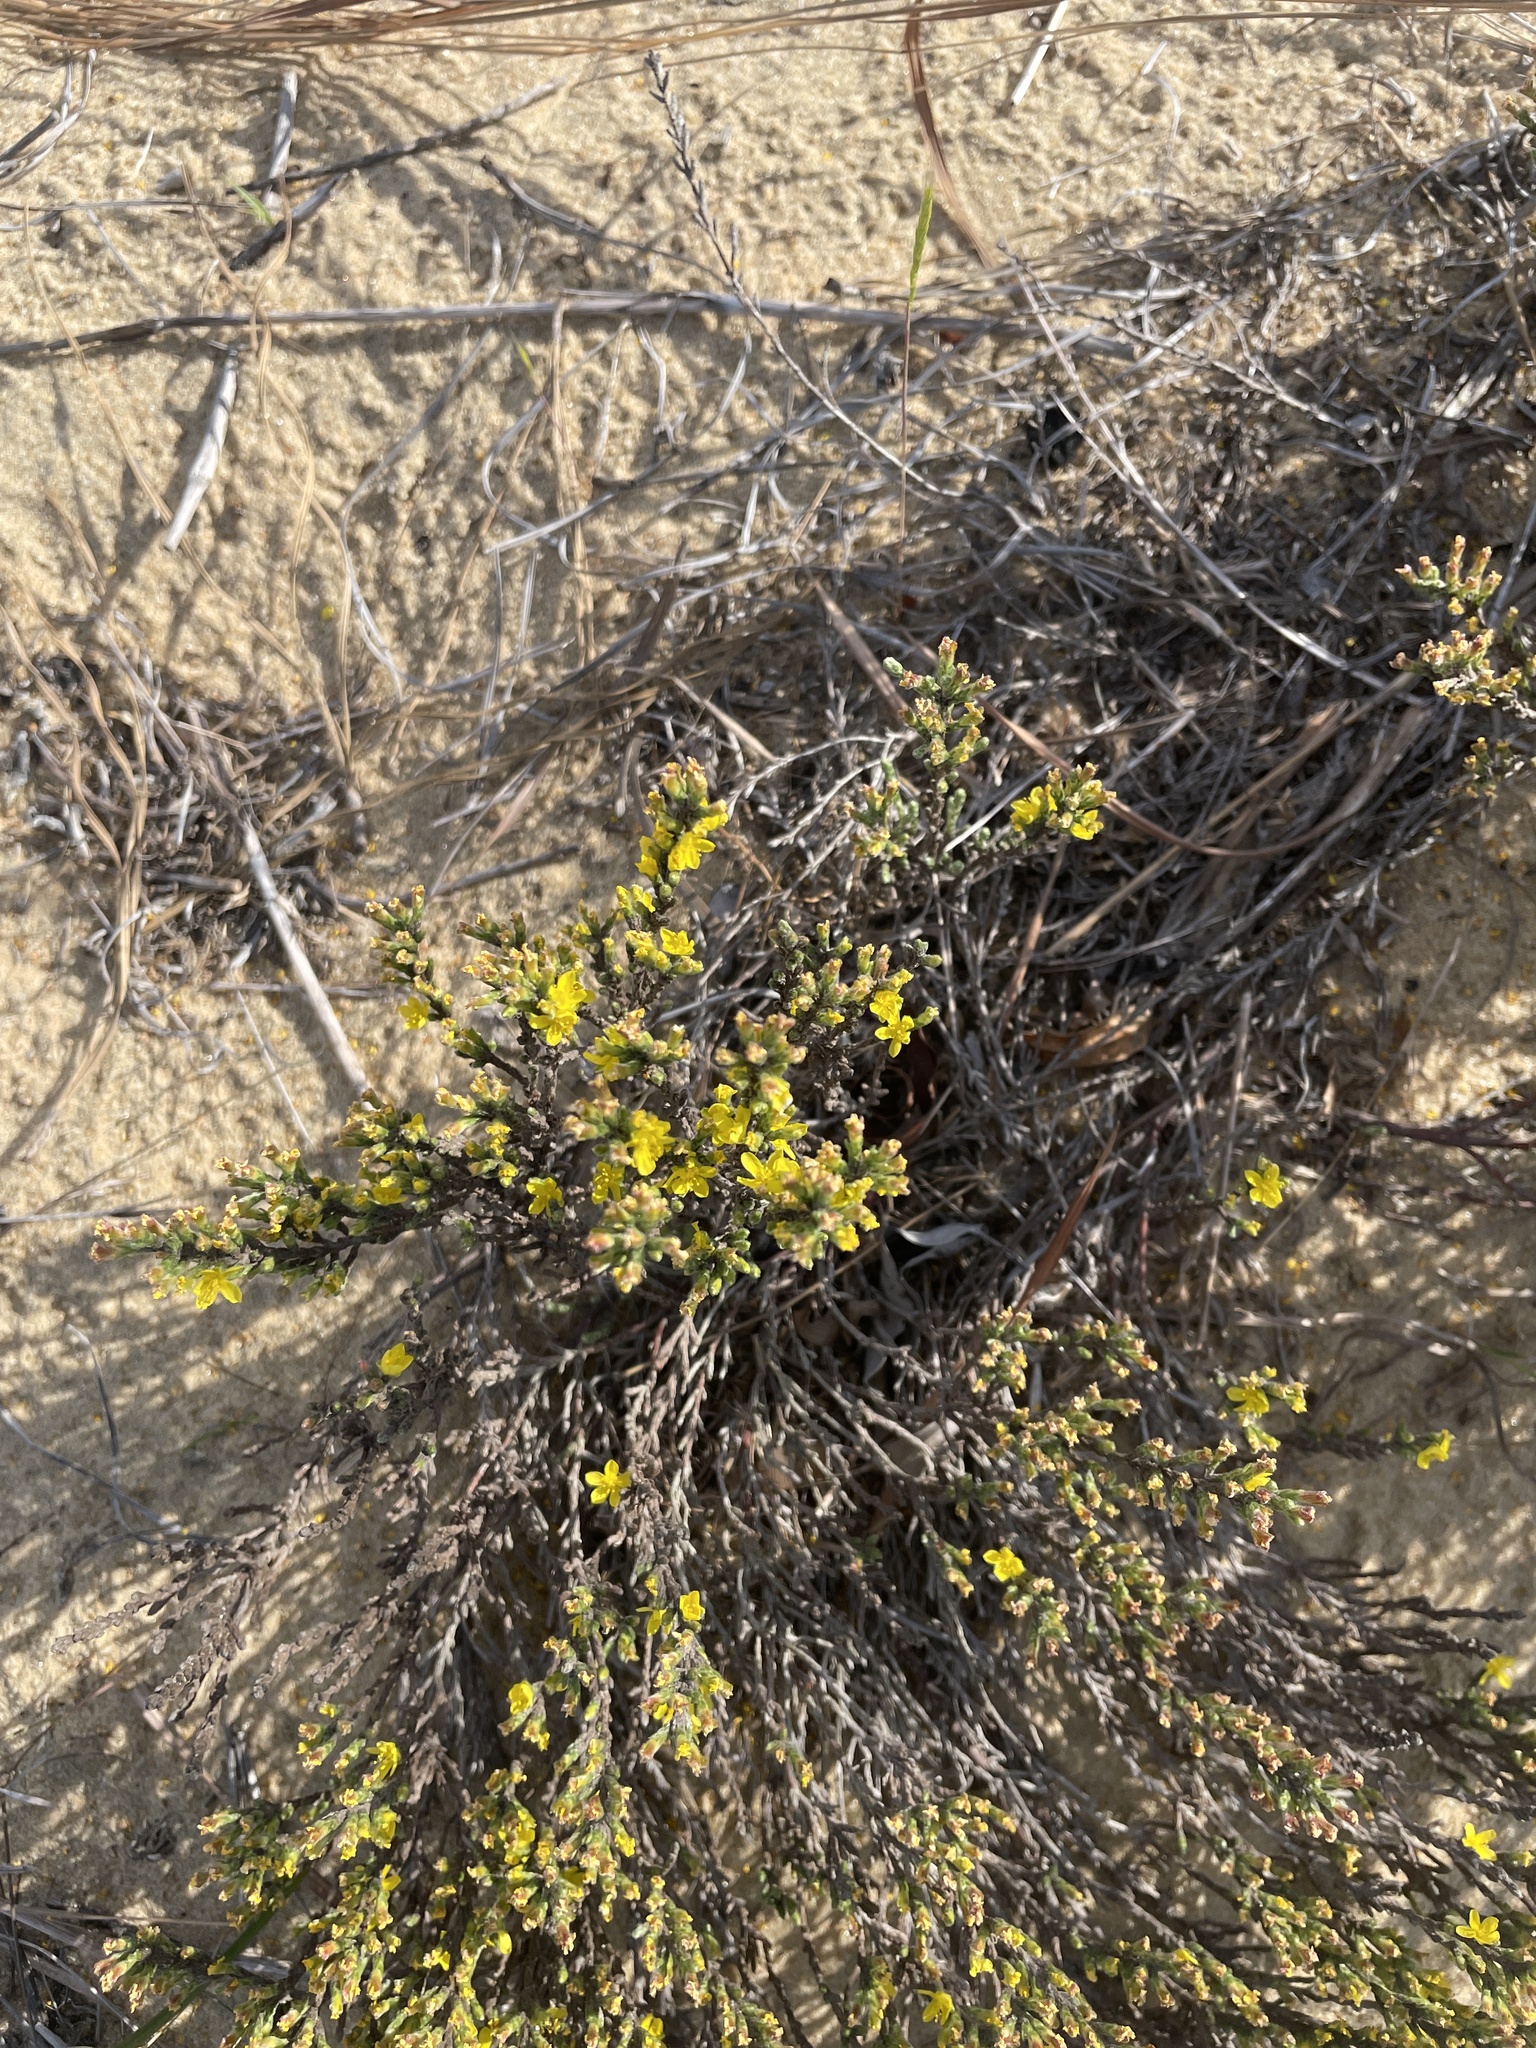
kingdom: Plantae
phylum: Tracheophyta
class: Magnoliopsida
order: Malvales
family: Cistaceae
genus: Hudsonia
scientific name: Hudsonia tomentosa
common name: Beach-heath
